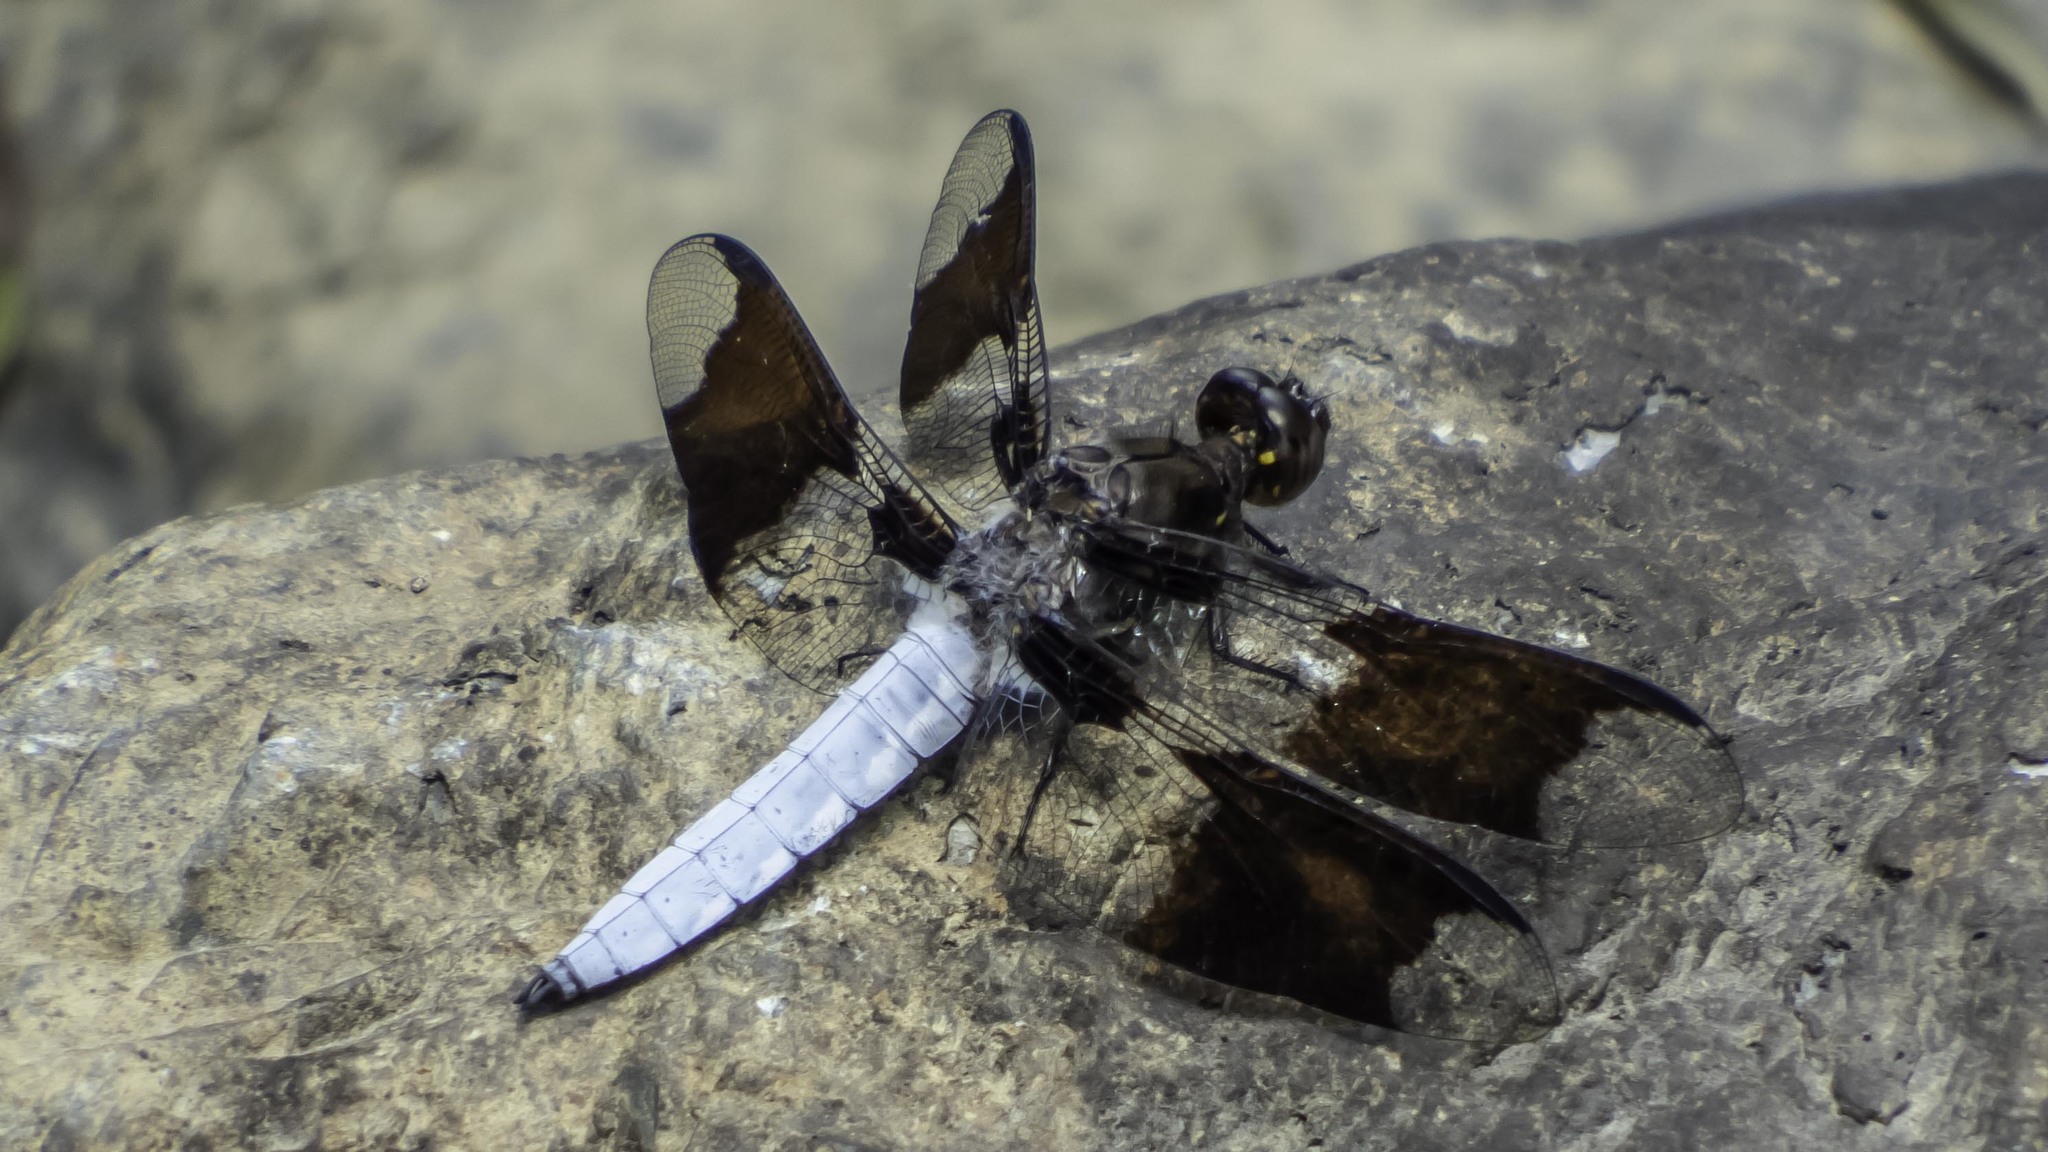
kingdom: Animalia
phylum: Arthropoda
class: Insecta
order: Odonata
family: Libellulidae
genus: Plathemis
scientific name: Plathemis lydia
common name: Common whitetail
